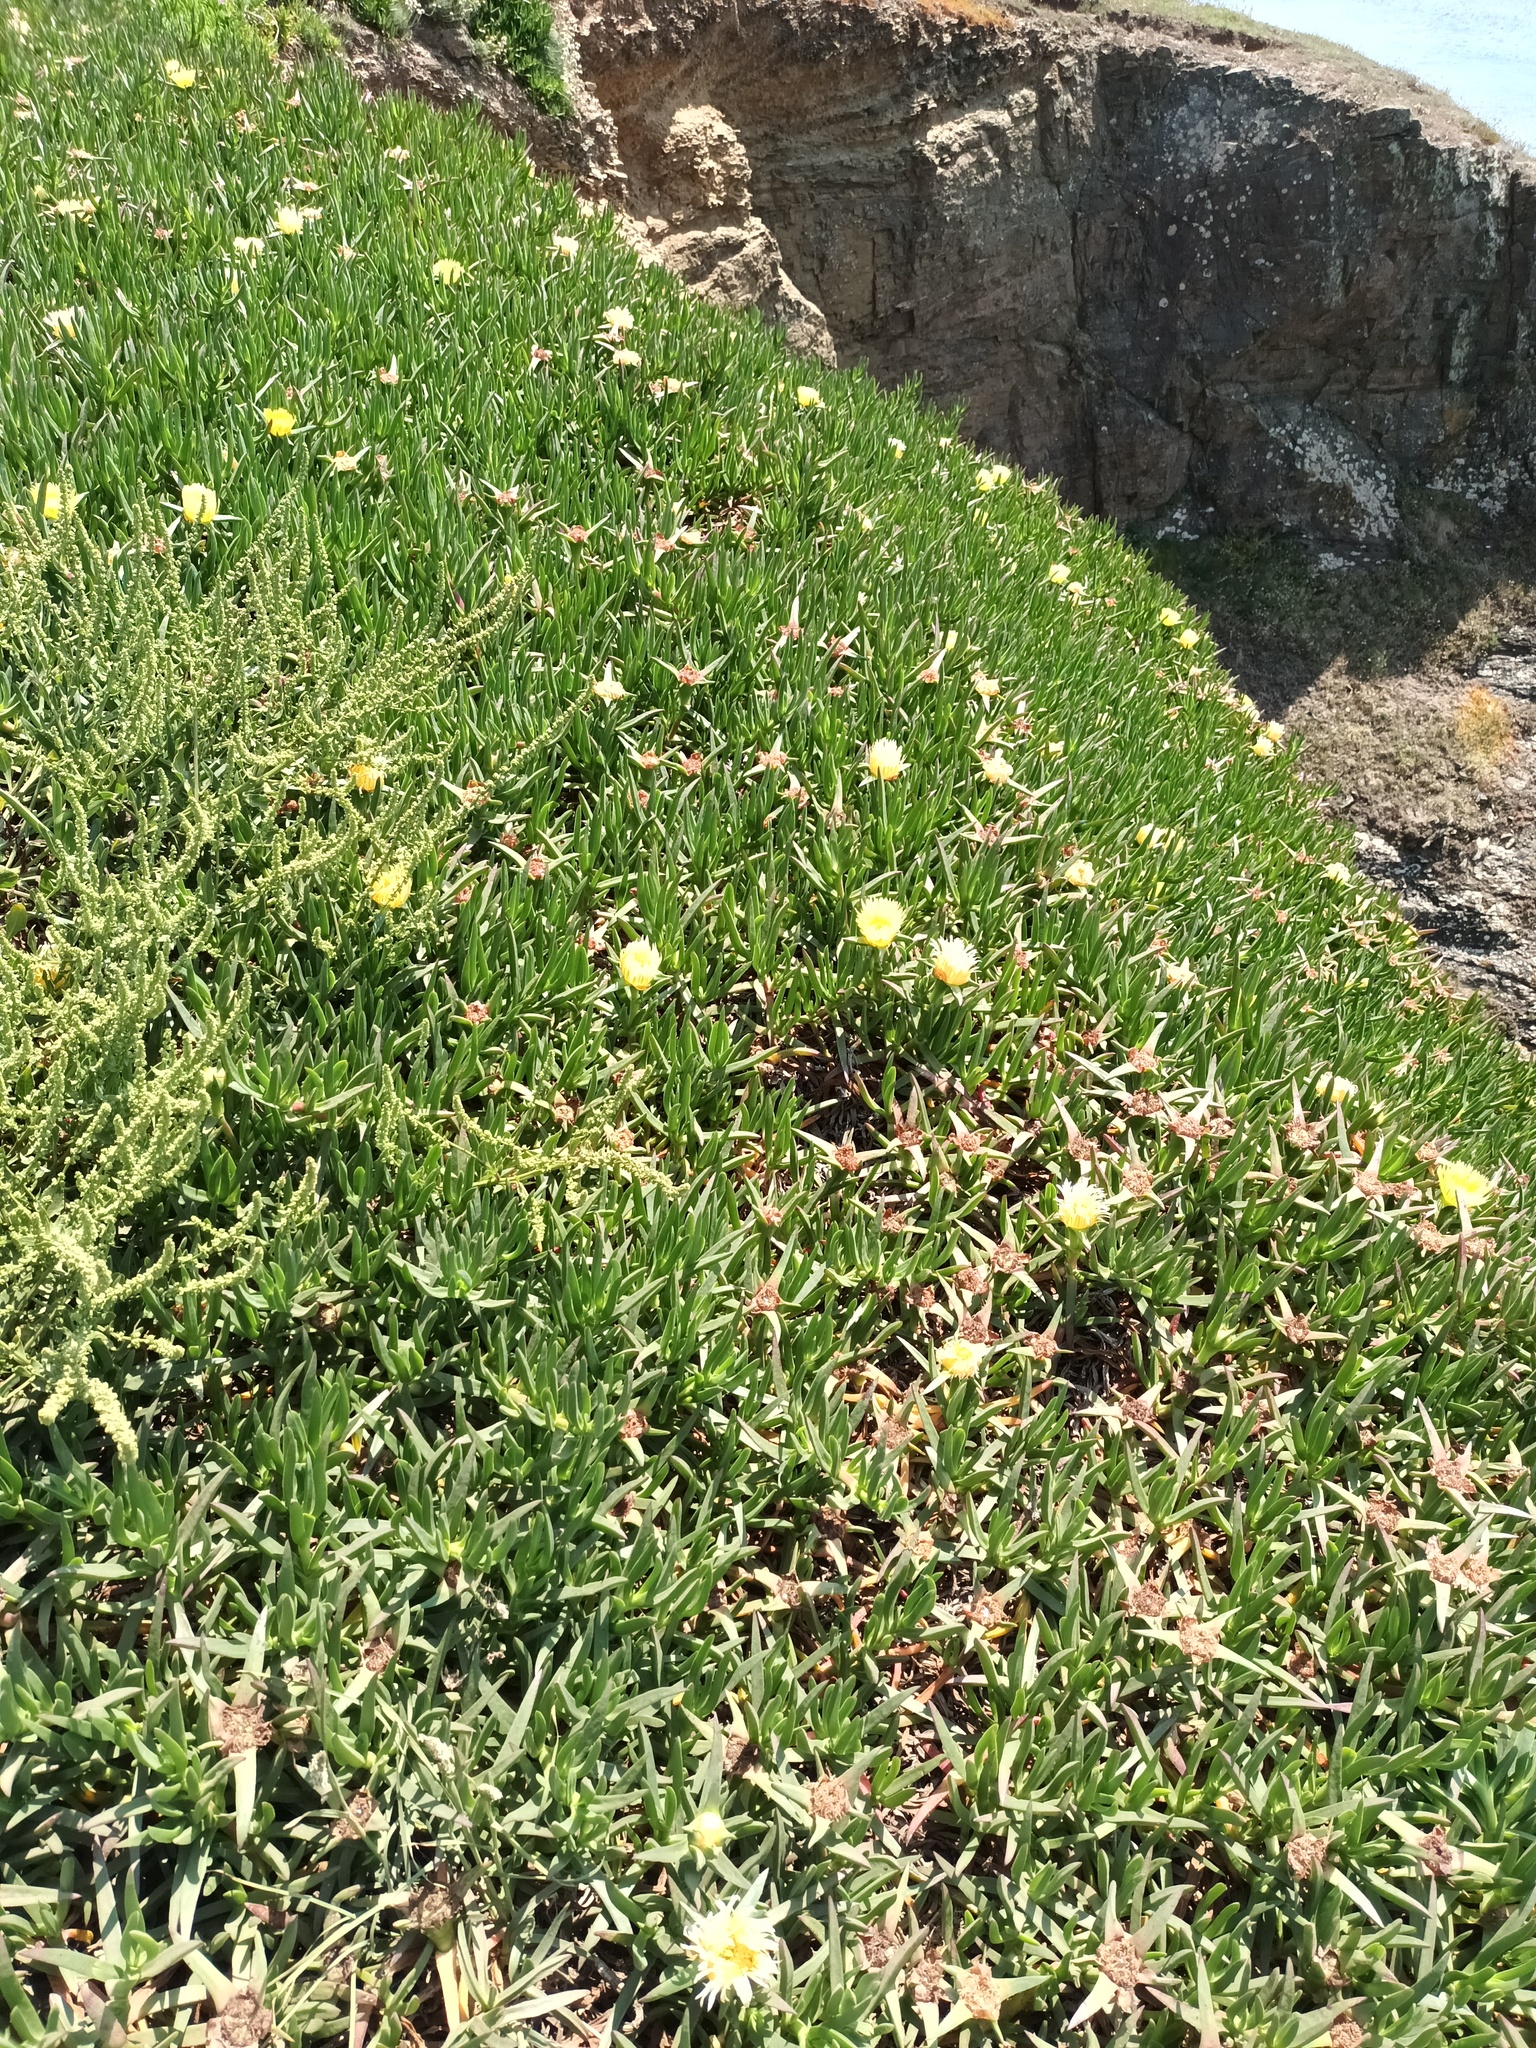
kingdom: Plantae
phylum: Tracheophyta
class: Magnoliopsida
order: Caryophyllales
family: Aizoaceae
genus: Carpobrotus
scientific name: Carpobrotus edulis
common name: Hottentot-fig
